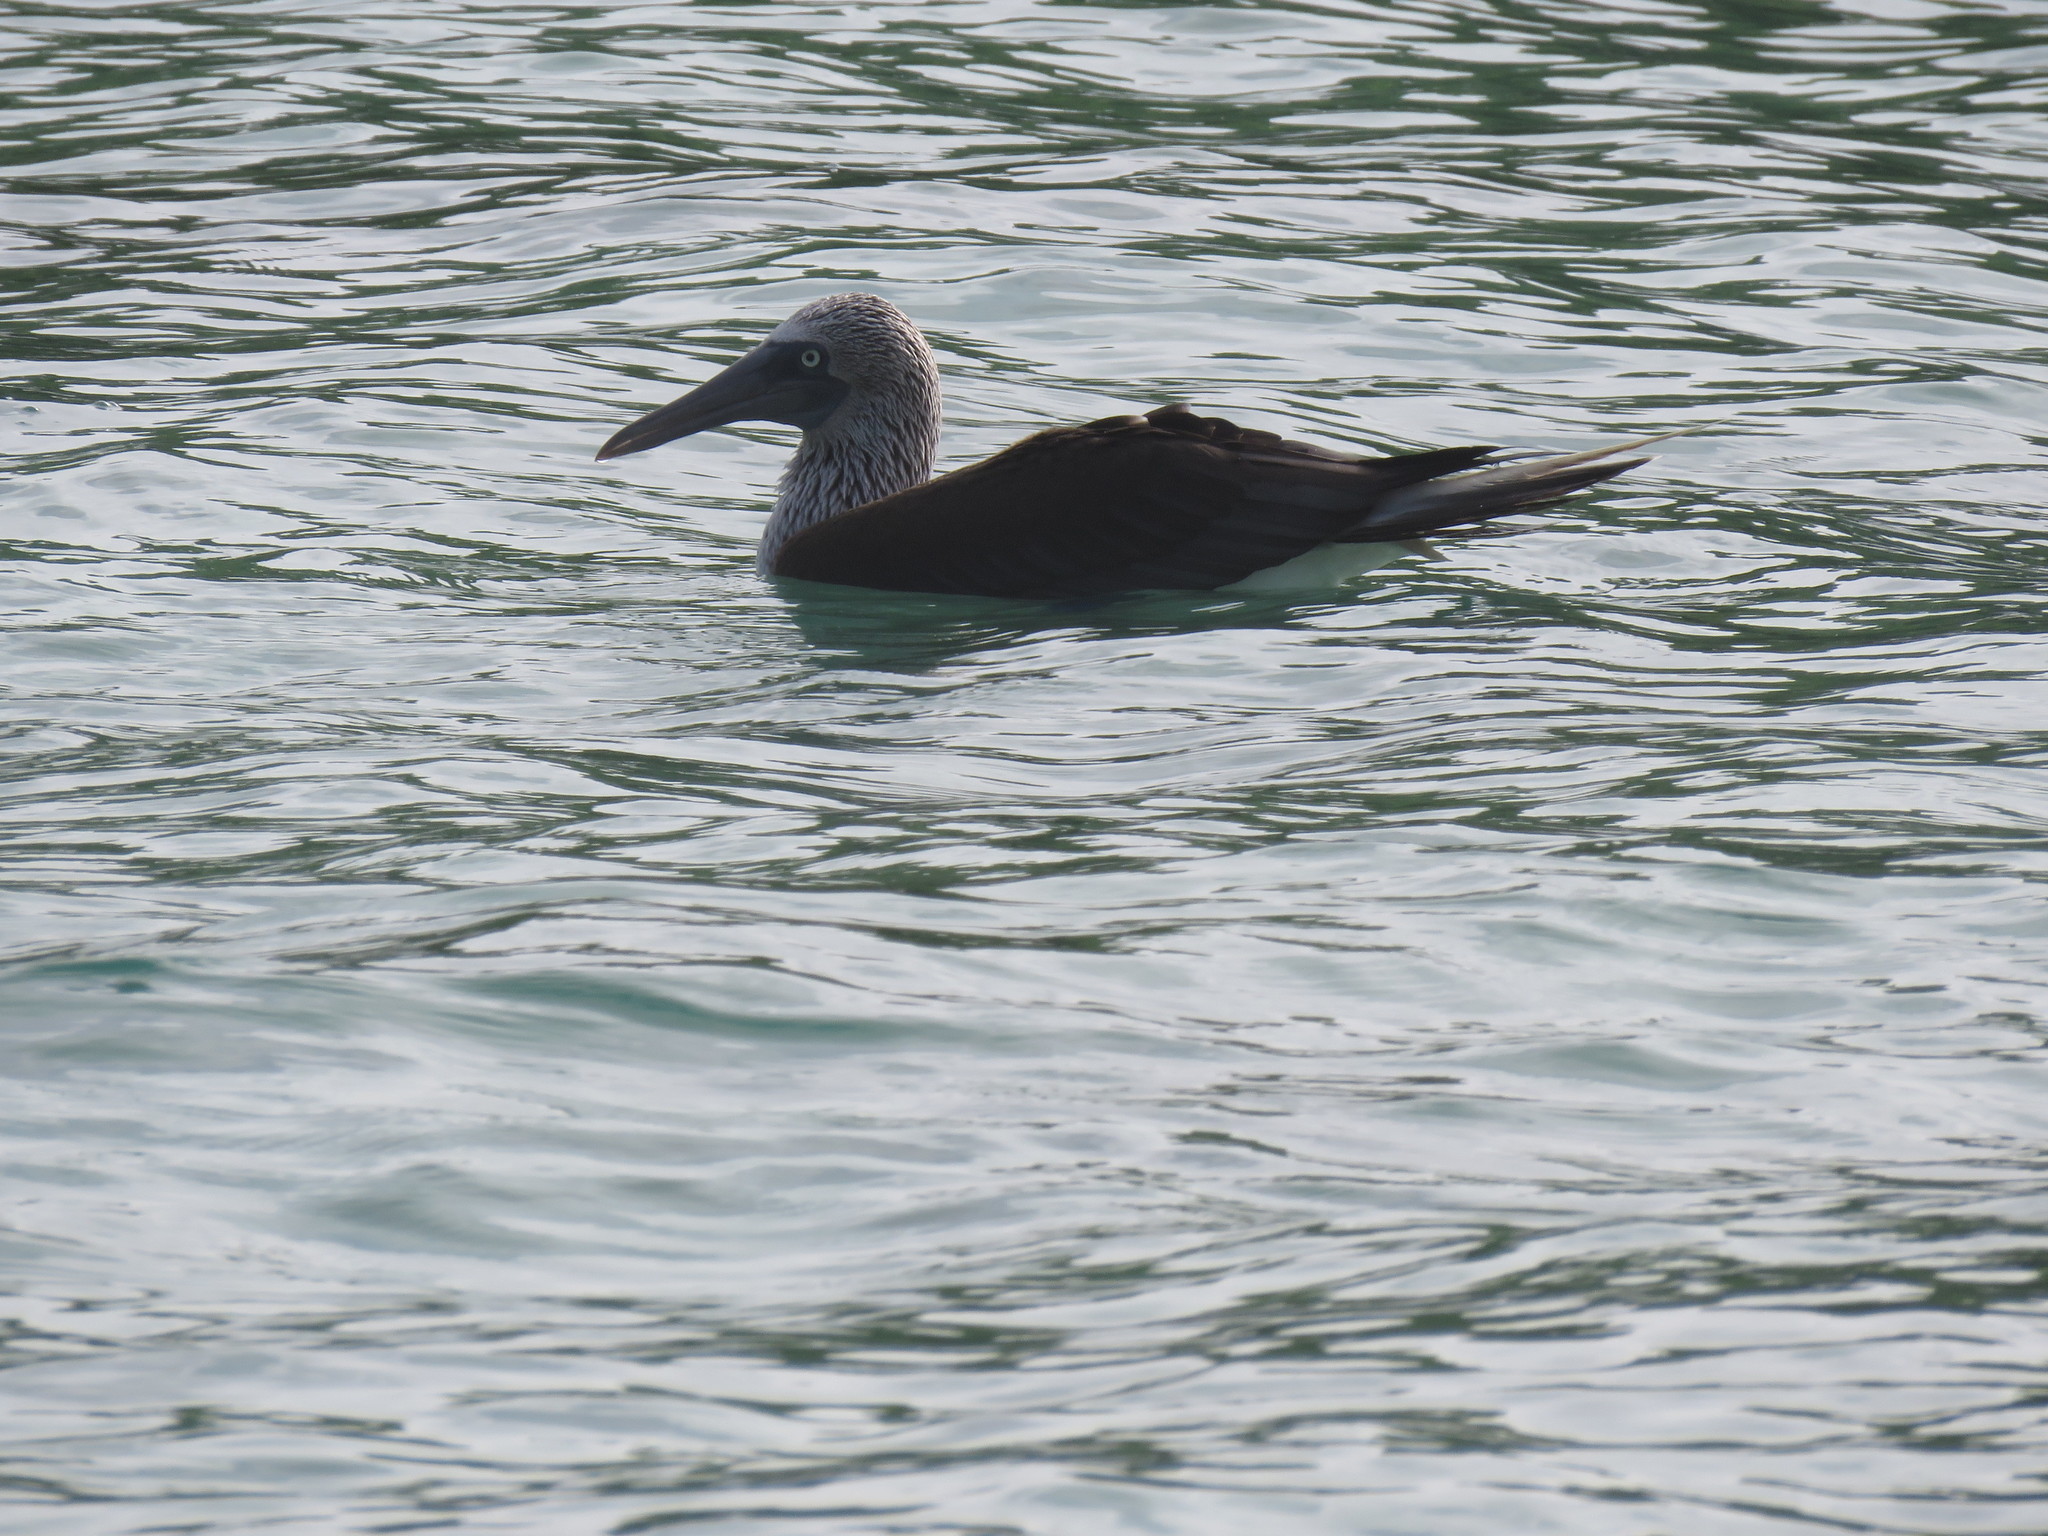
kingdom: Animalia
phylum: Chordata
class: Aves
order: Suliformes
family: Sulidae
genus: Sula
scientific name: Sula nebouxii
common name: Blue-footed booby
